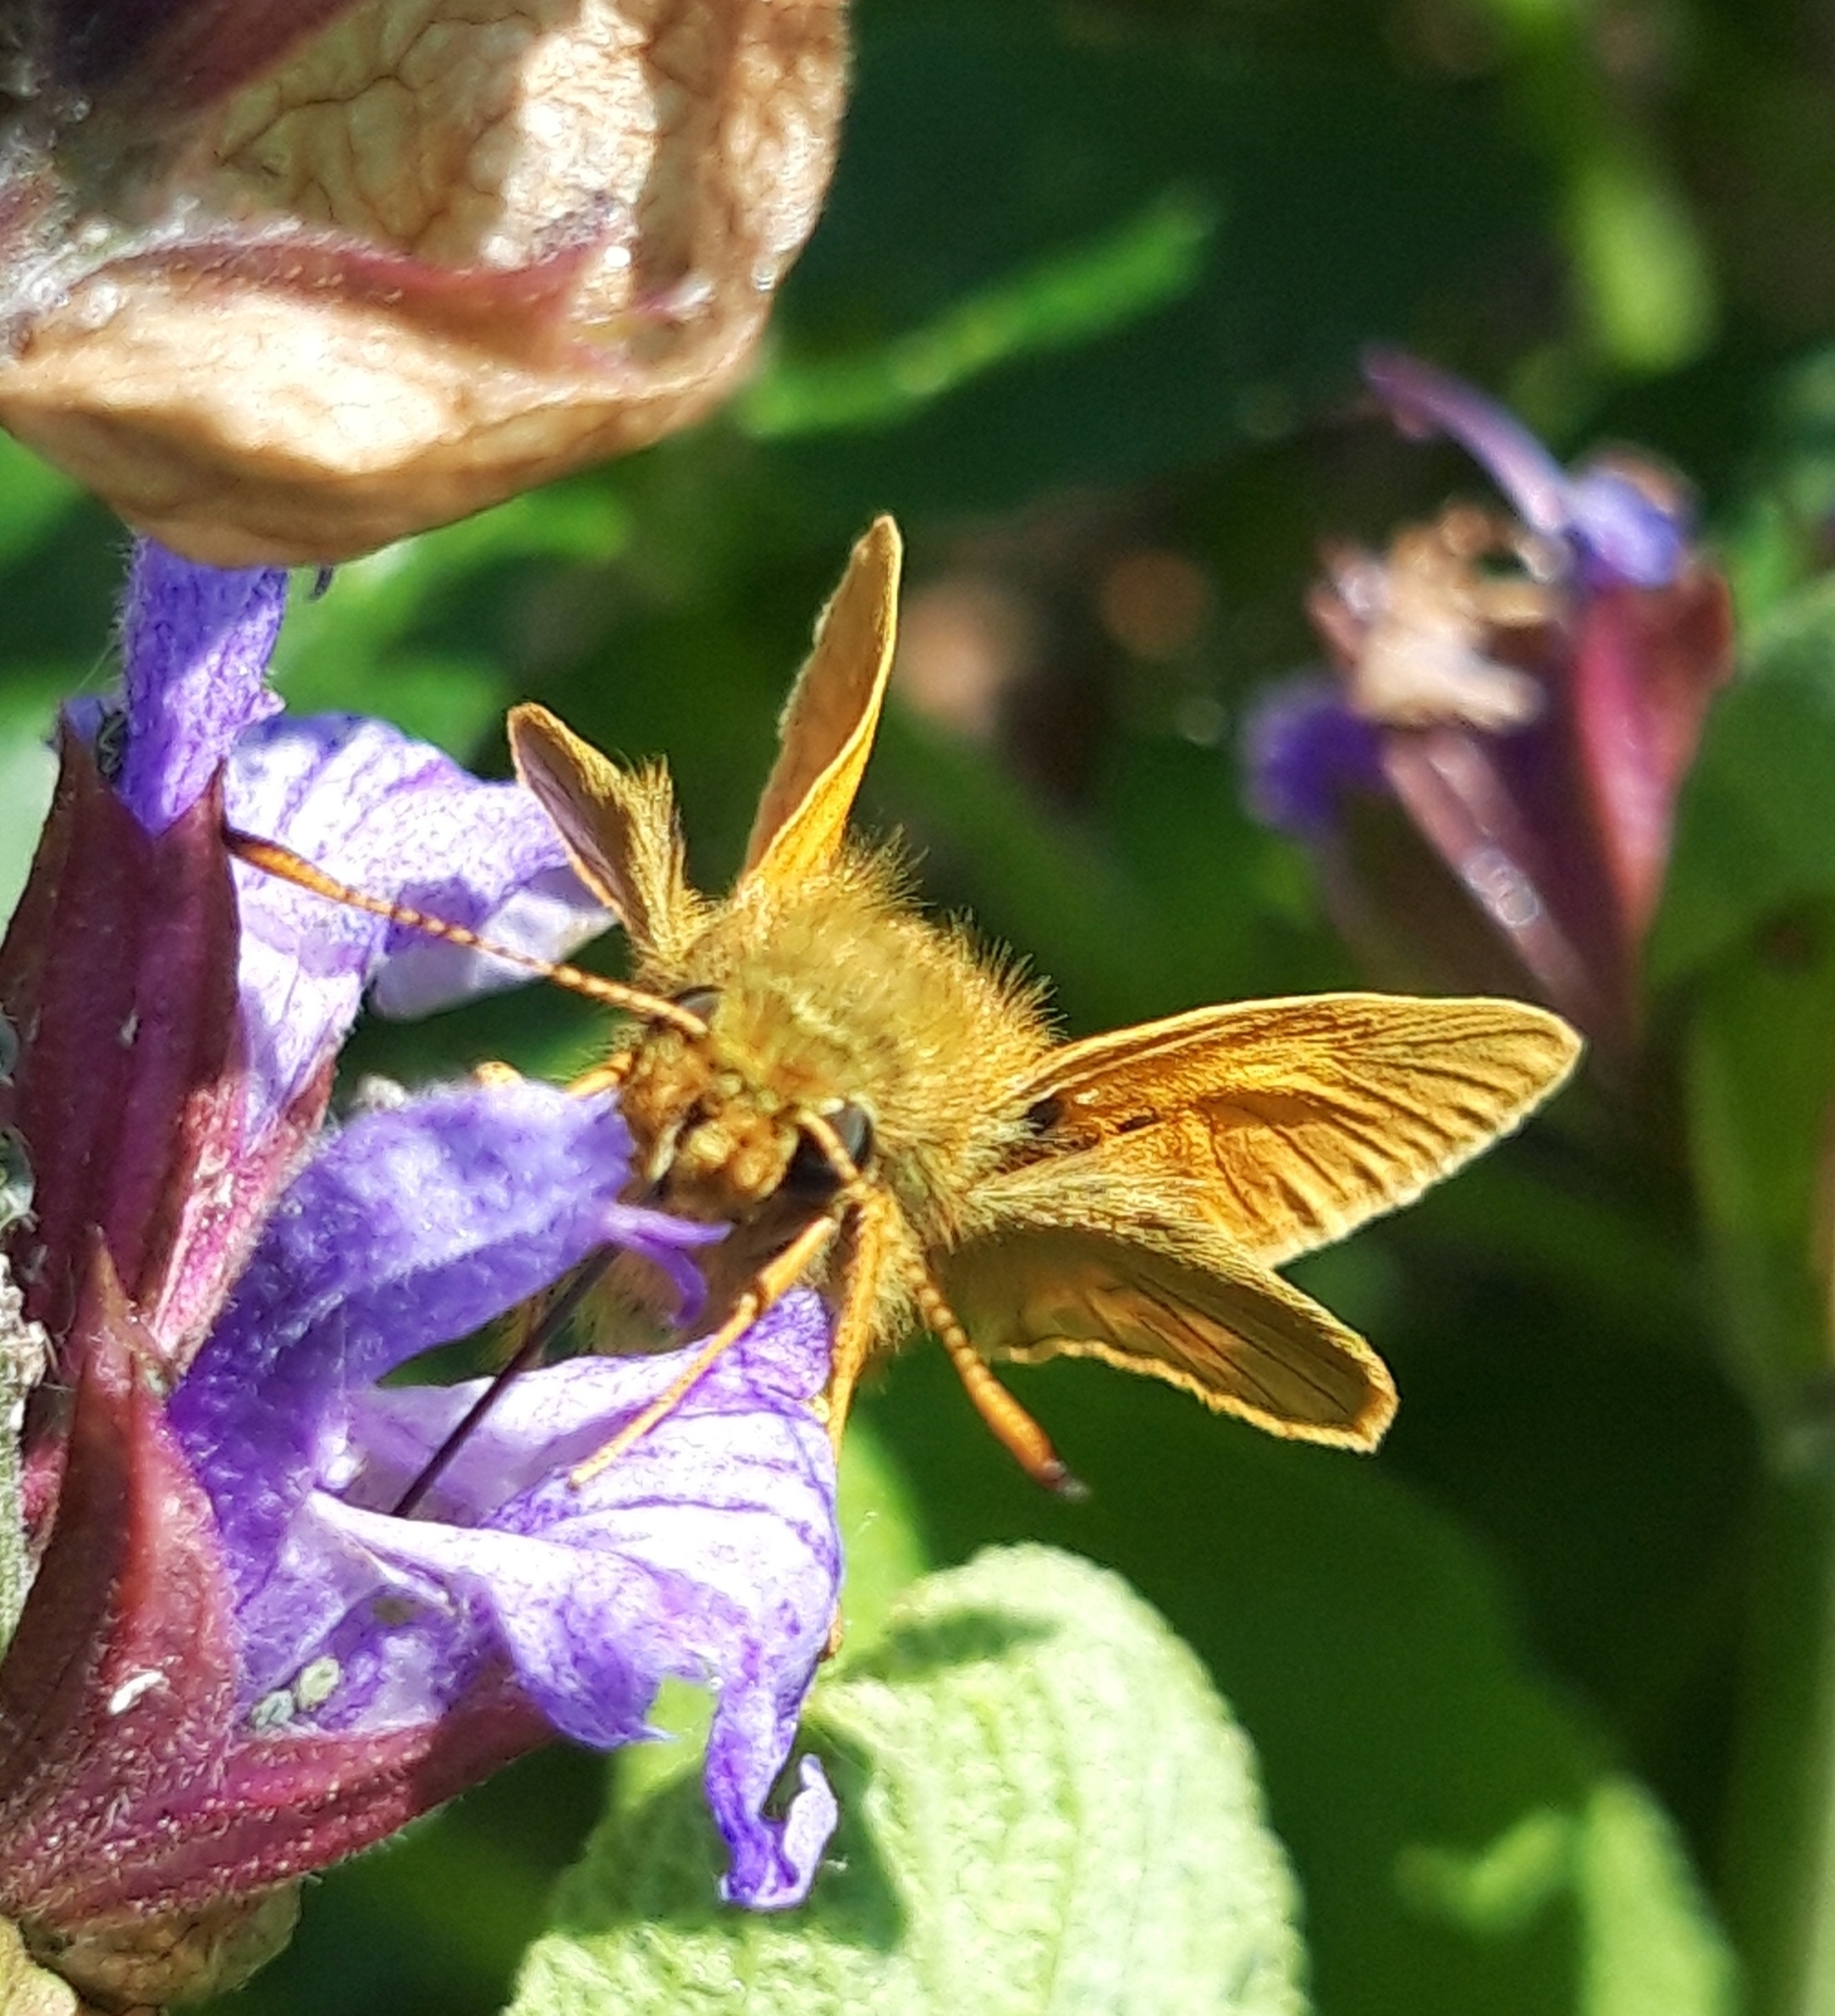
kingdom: Animalia
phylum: Arthropoda
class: Insecta
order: Lepidoptera
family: Hesperiidae
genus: Ochlodes
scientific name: Ochlodes venata
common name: Large skipper
